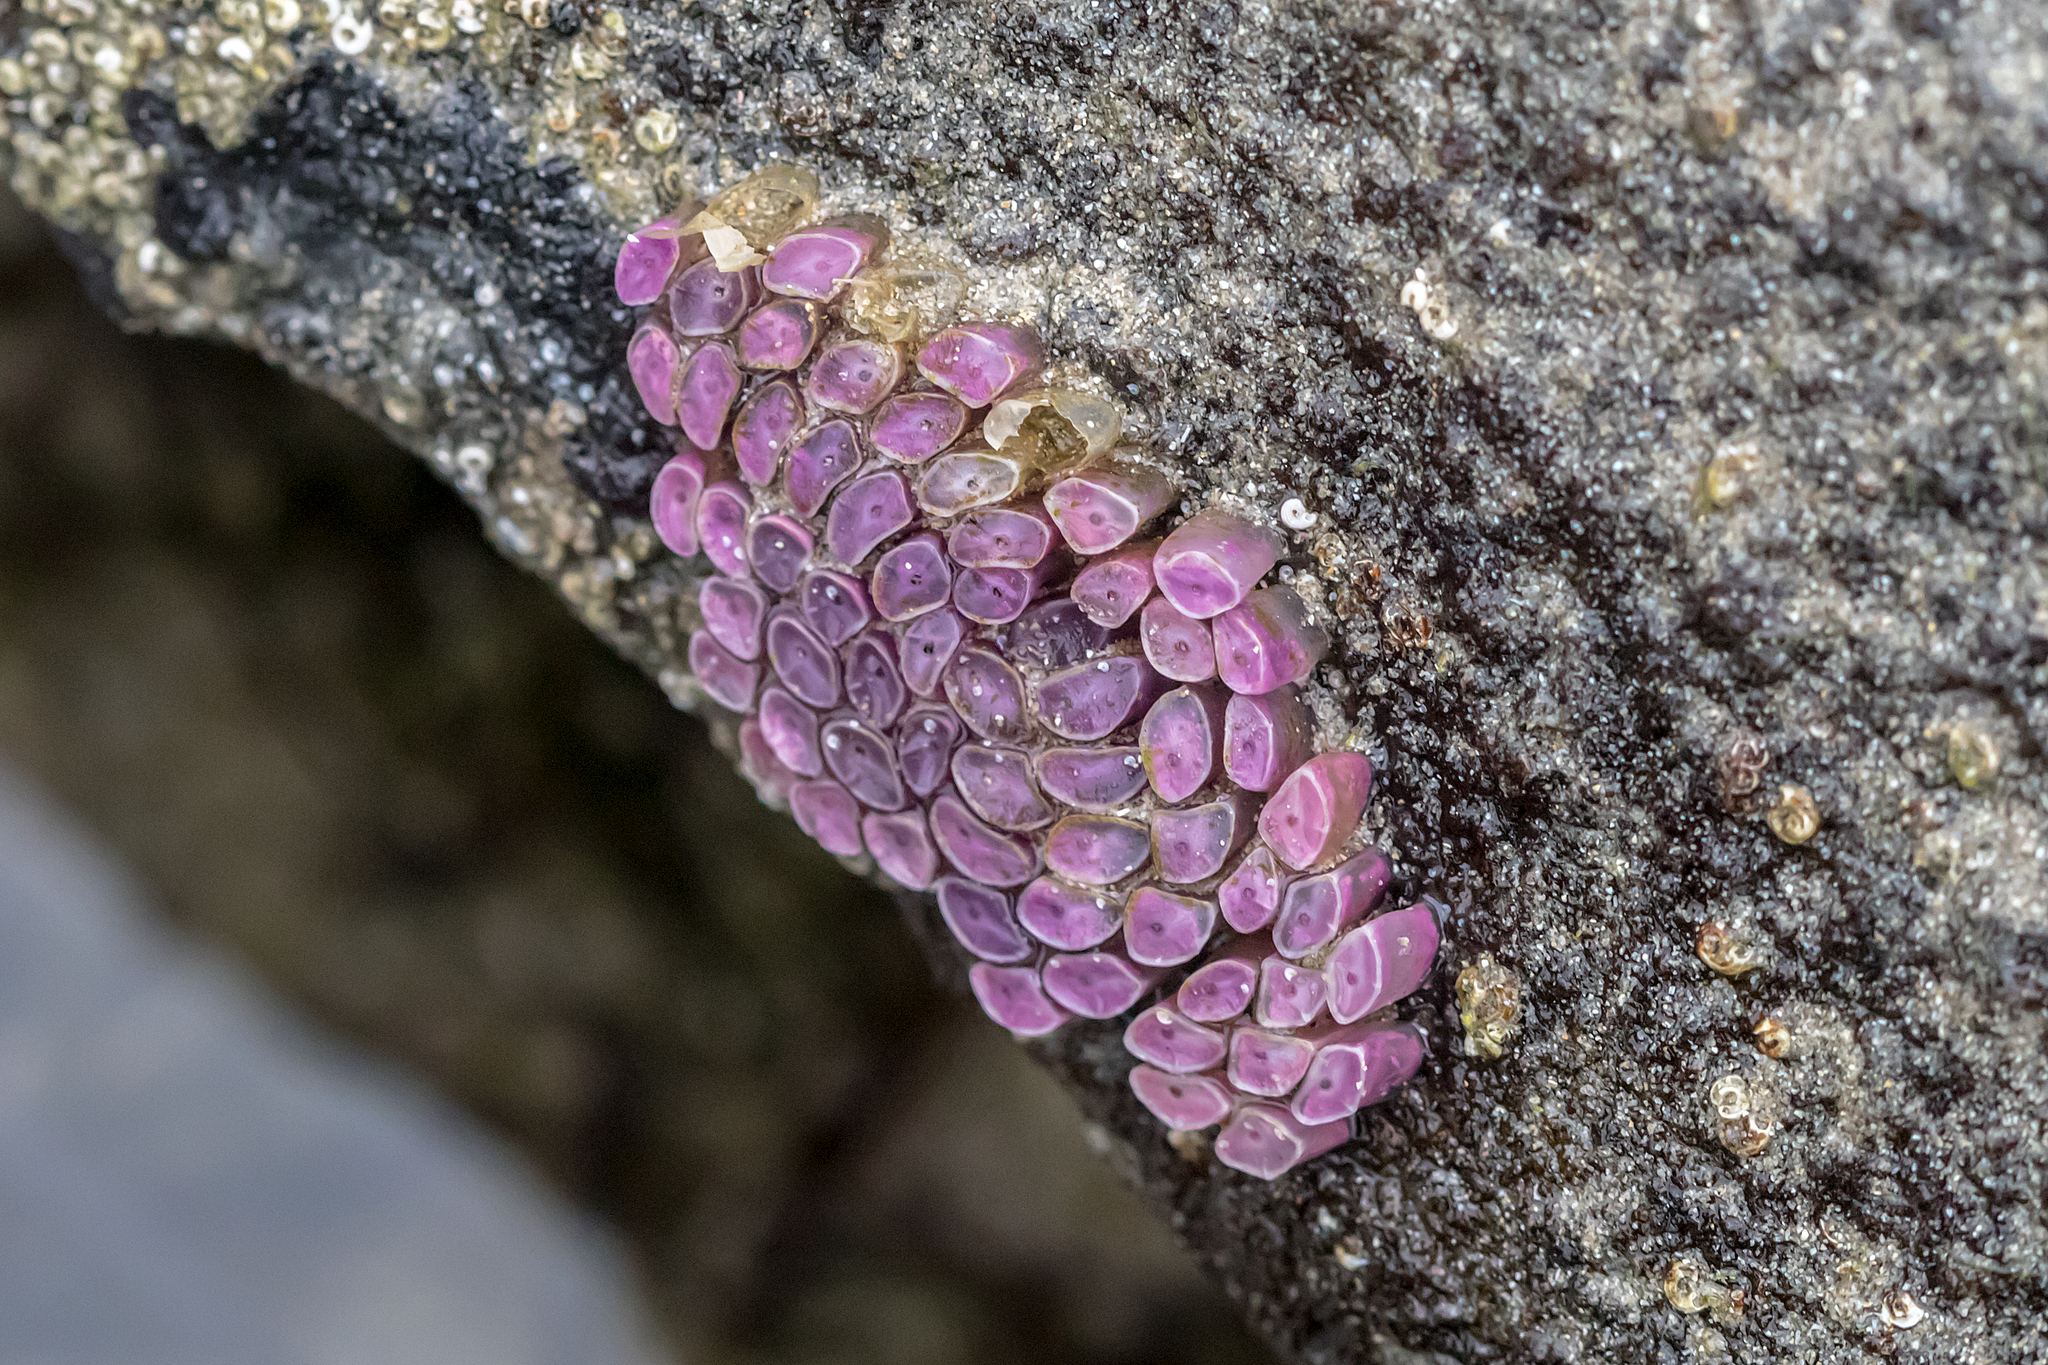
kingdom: Animalia
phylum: Mollusca
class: Gastropoda
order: Neogastropoda
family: Muricidae
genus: Dicathais
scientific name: Dicathais orbita
